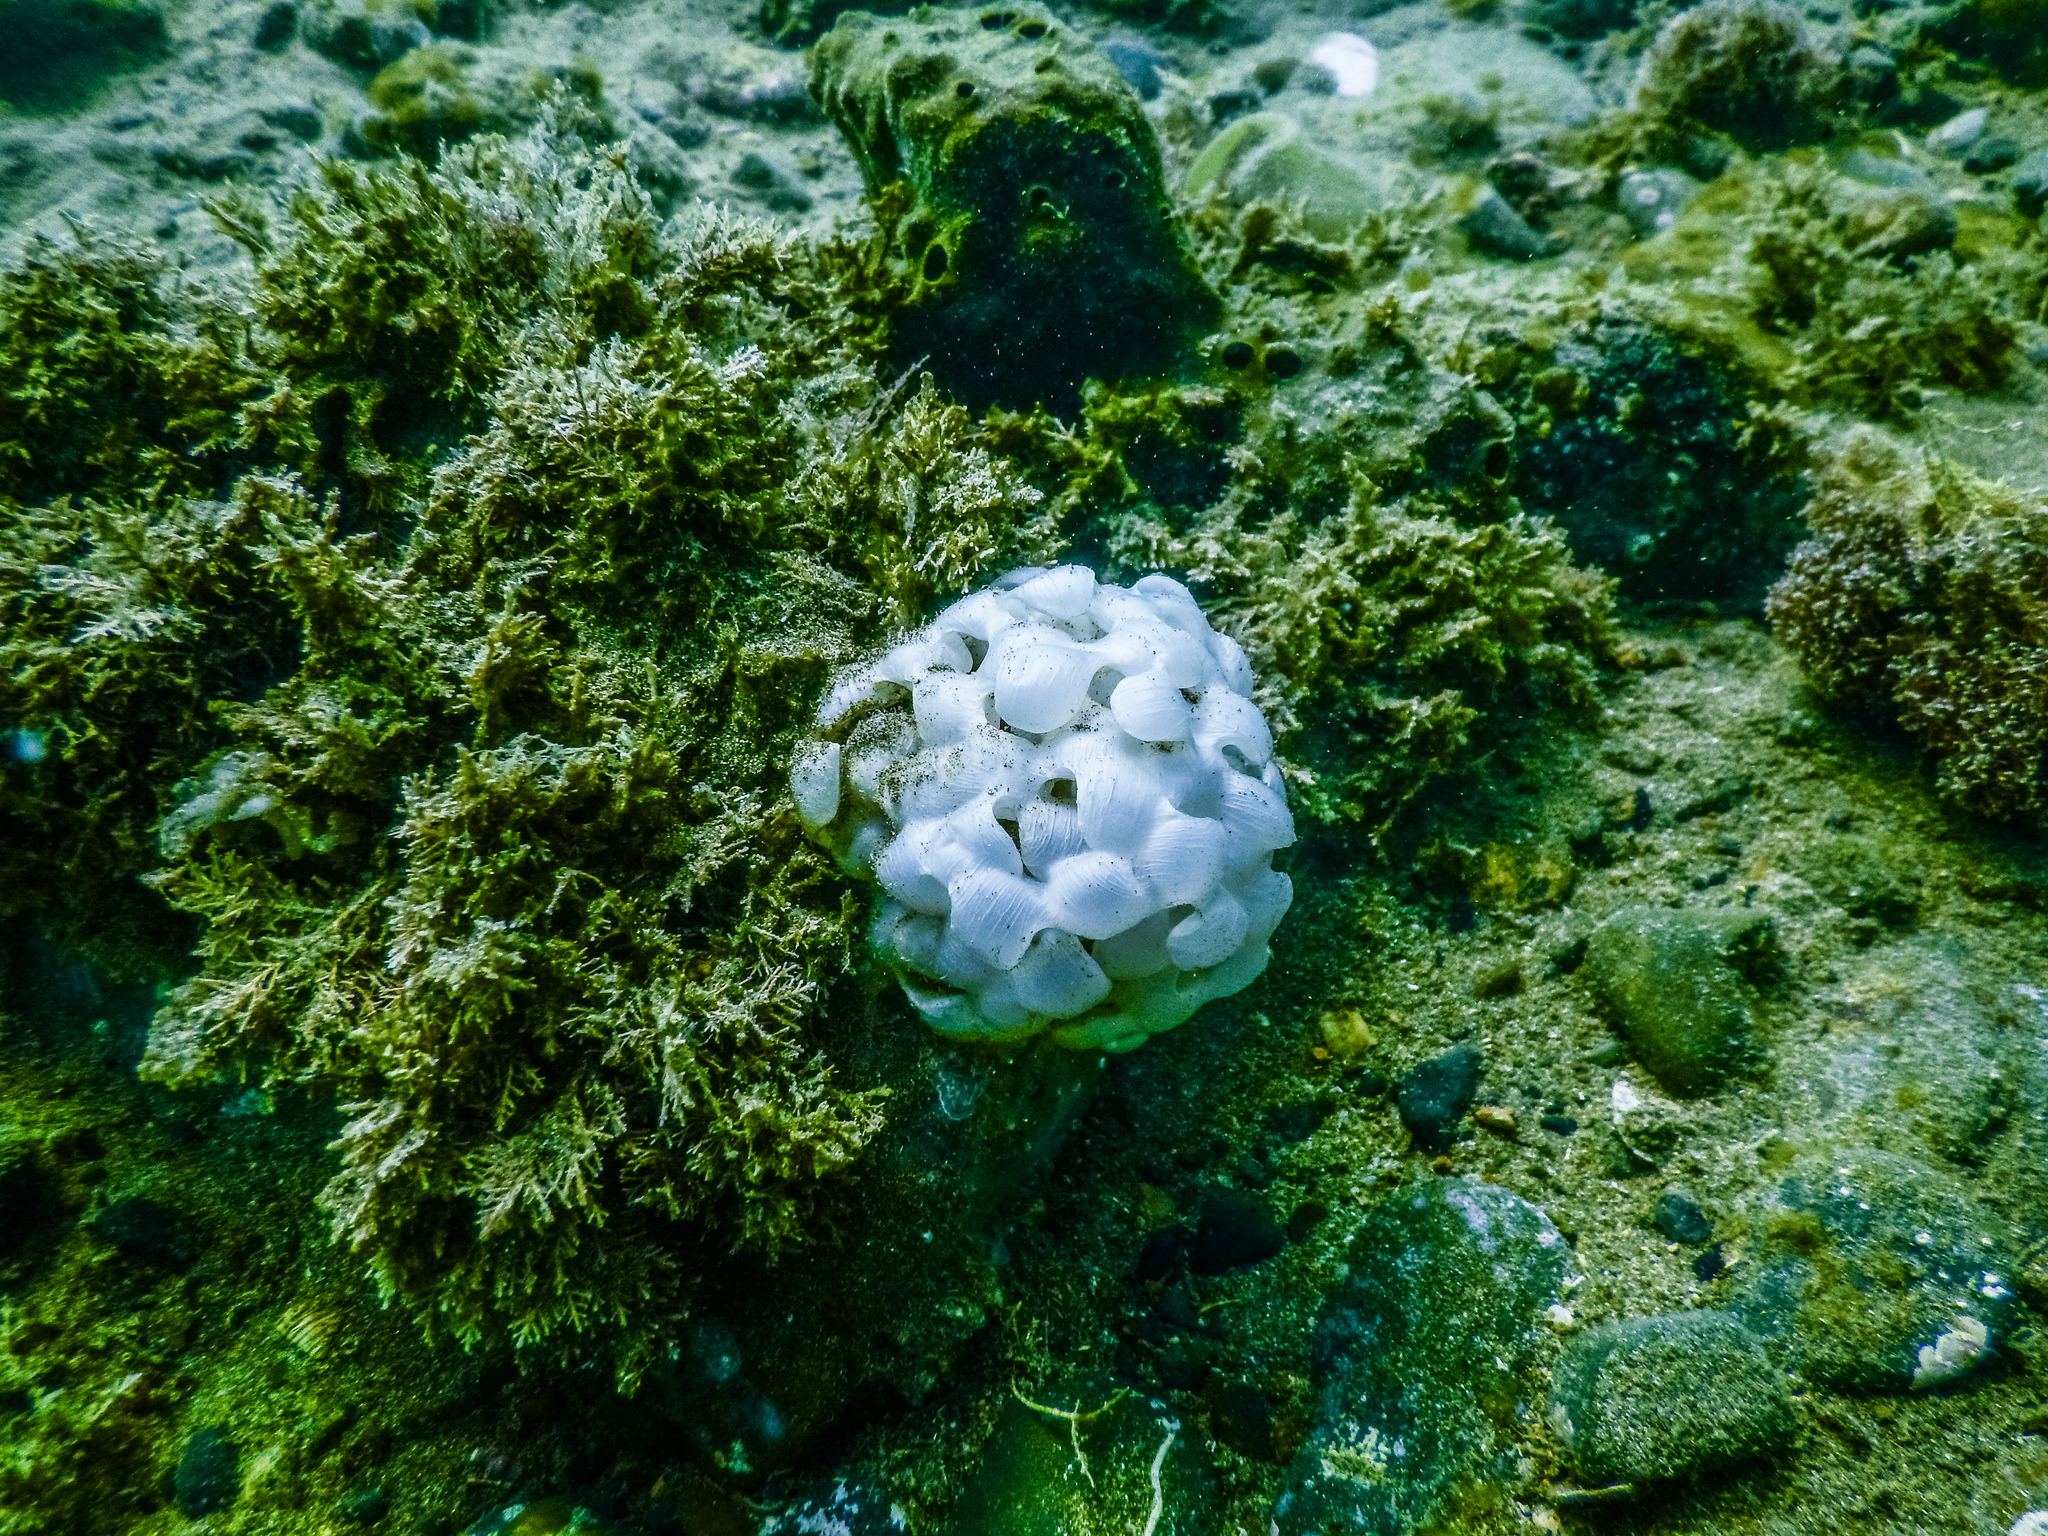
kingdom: Animalia
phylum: Mollusca
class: Gastropoda
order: Neogastropoda
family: Austrosiphonidae
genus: Penion
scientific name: Penion sulcatus
